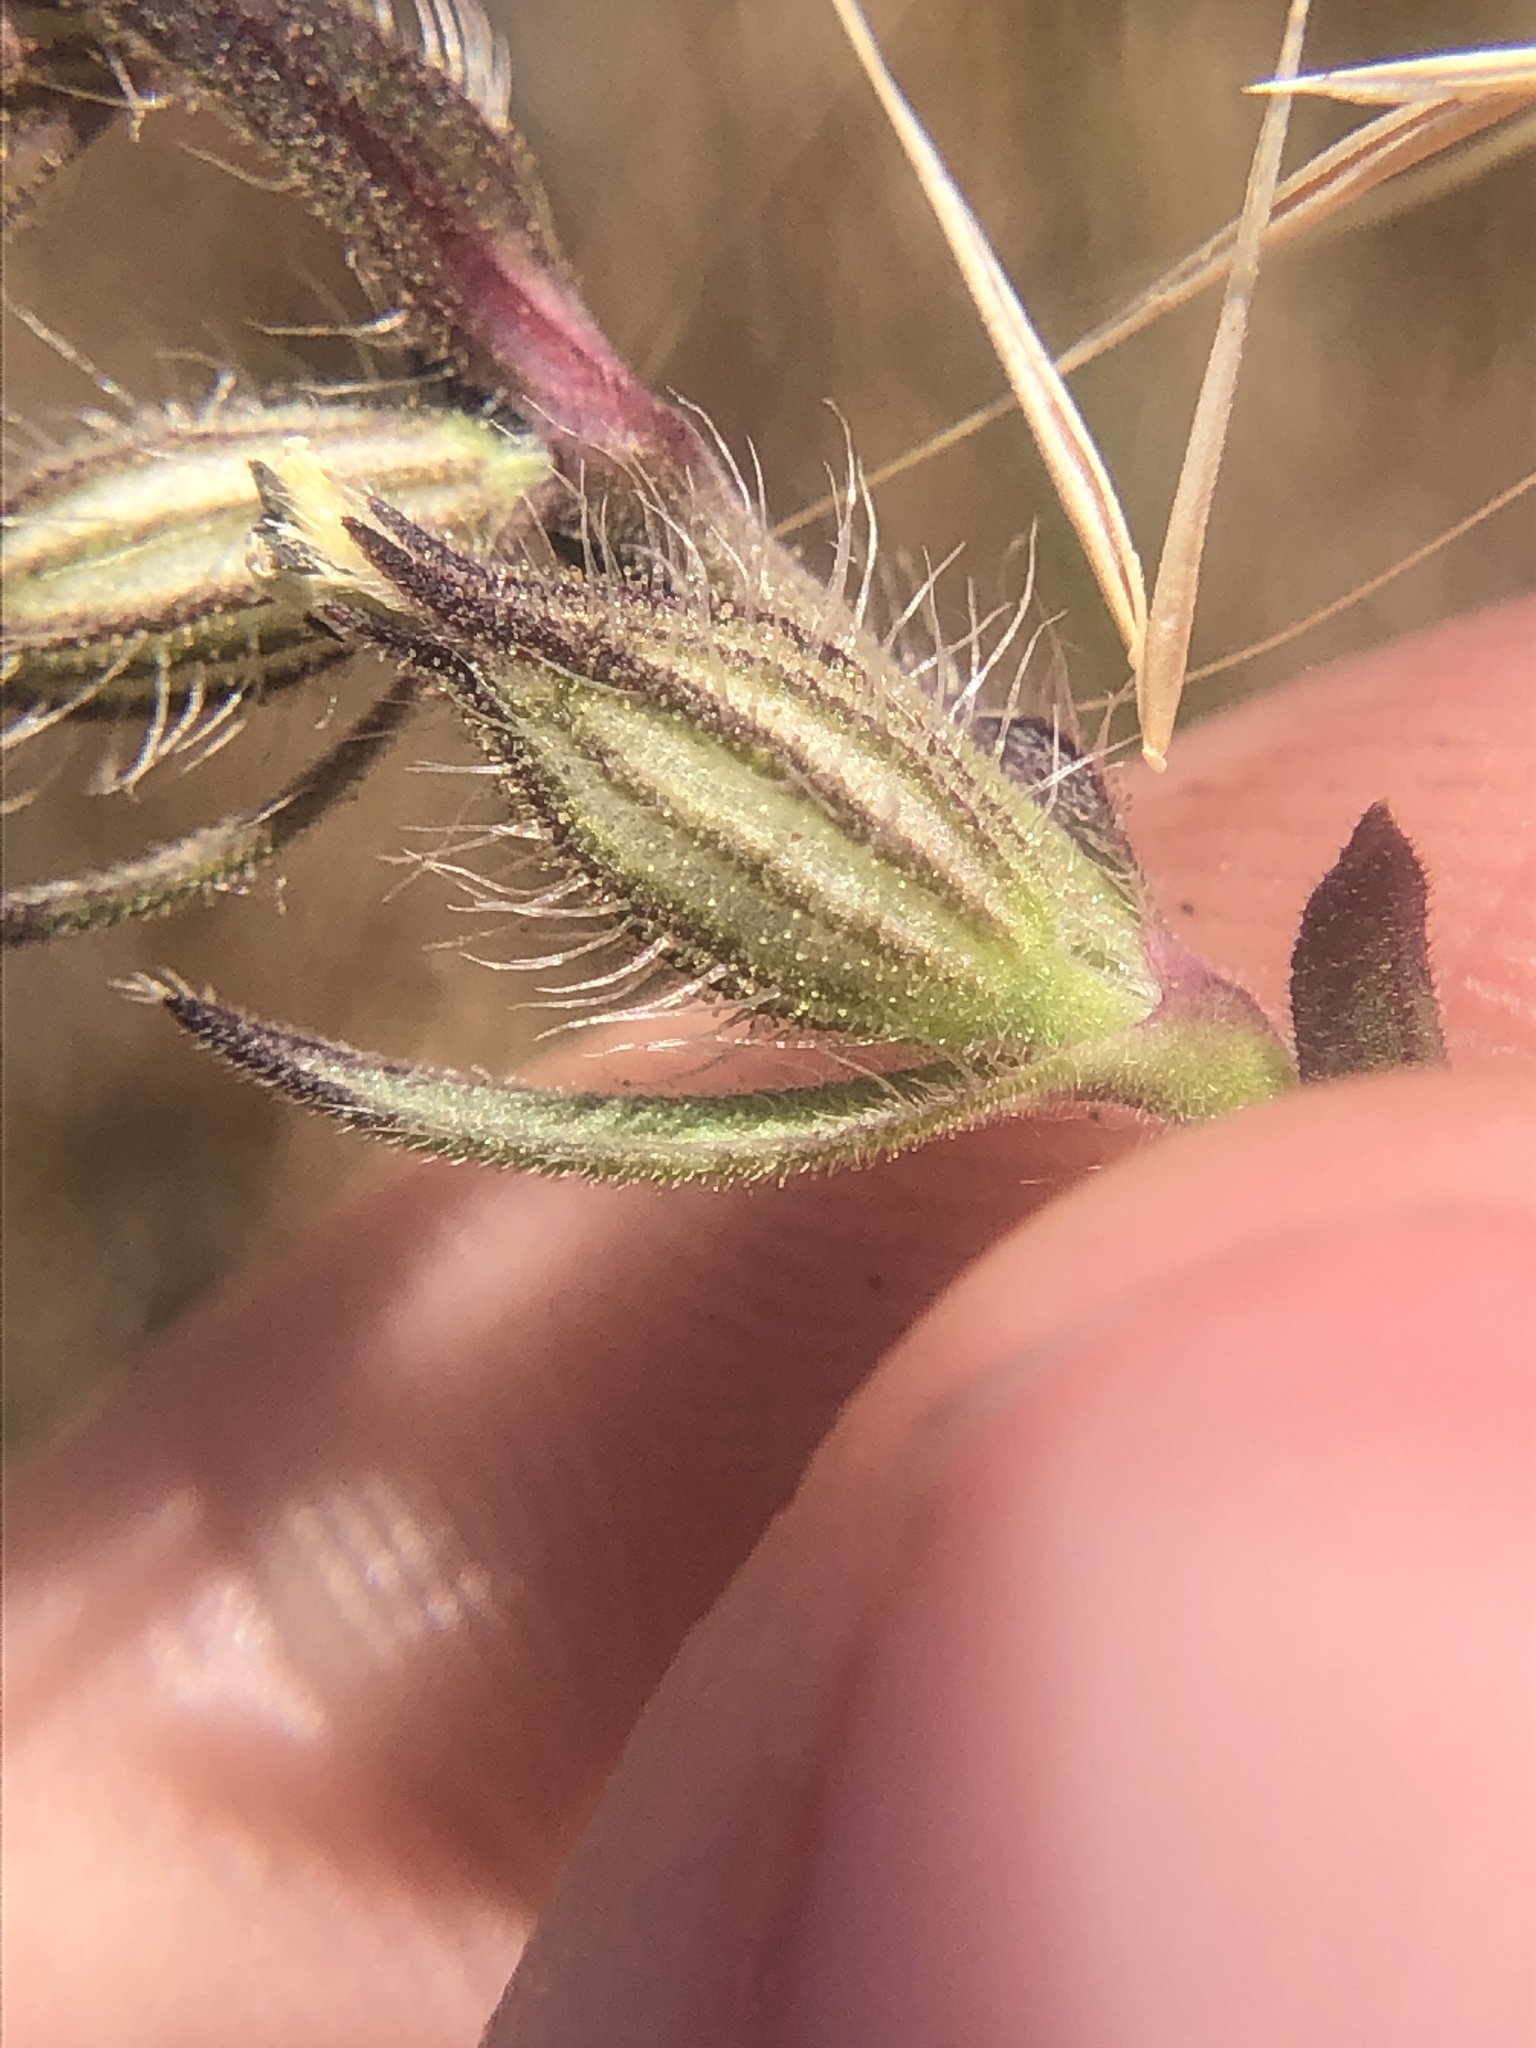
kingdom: Plantae
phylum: Tracheophyta
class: Magnoliopsida
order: Caryophyllales
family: Caryophyllaceae
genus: Silene
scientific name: Silene gallica
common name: Small-flowered catchfly
